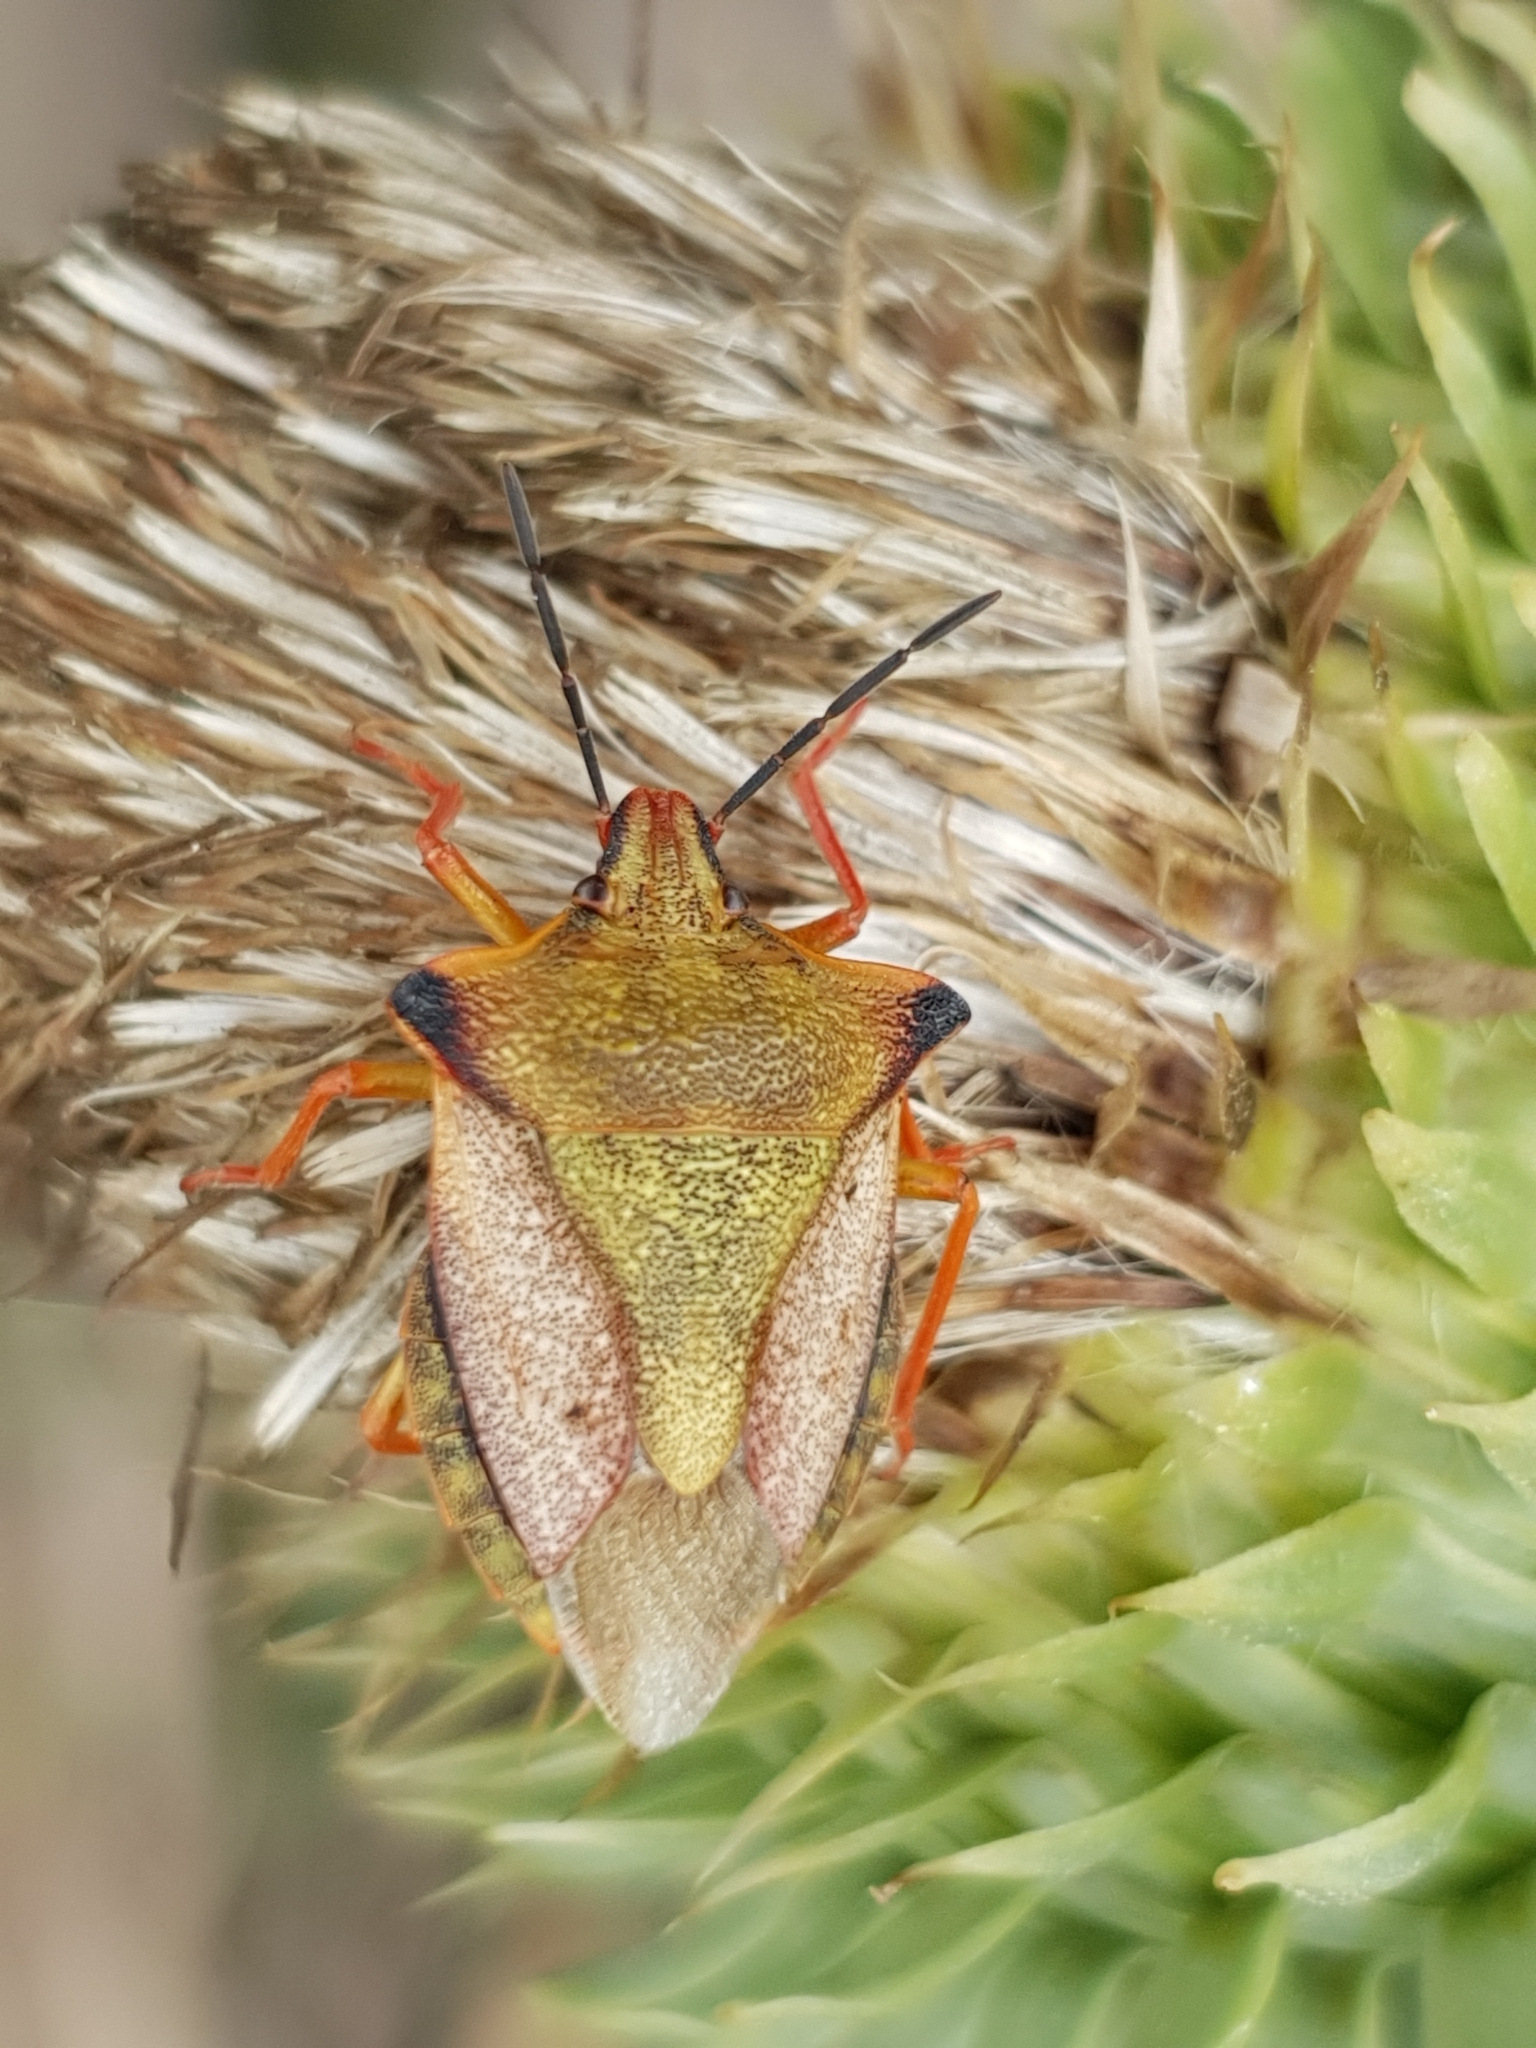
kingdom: Animalia
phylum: Arthropoda
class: Insecta
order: Hemiptera
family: Pentatomidae
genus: Carpocoris
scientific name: Carpocoris mediterraneus
